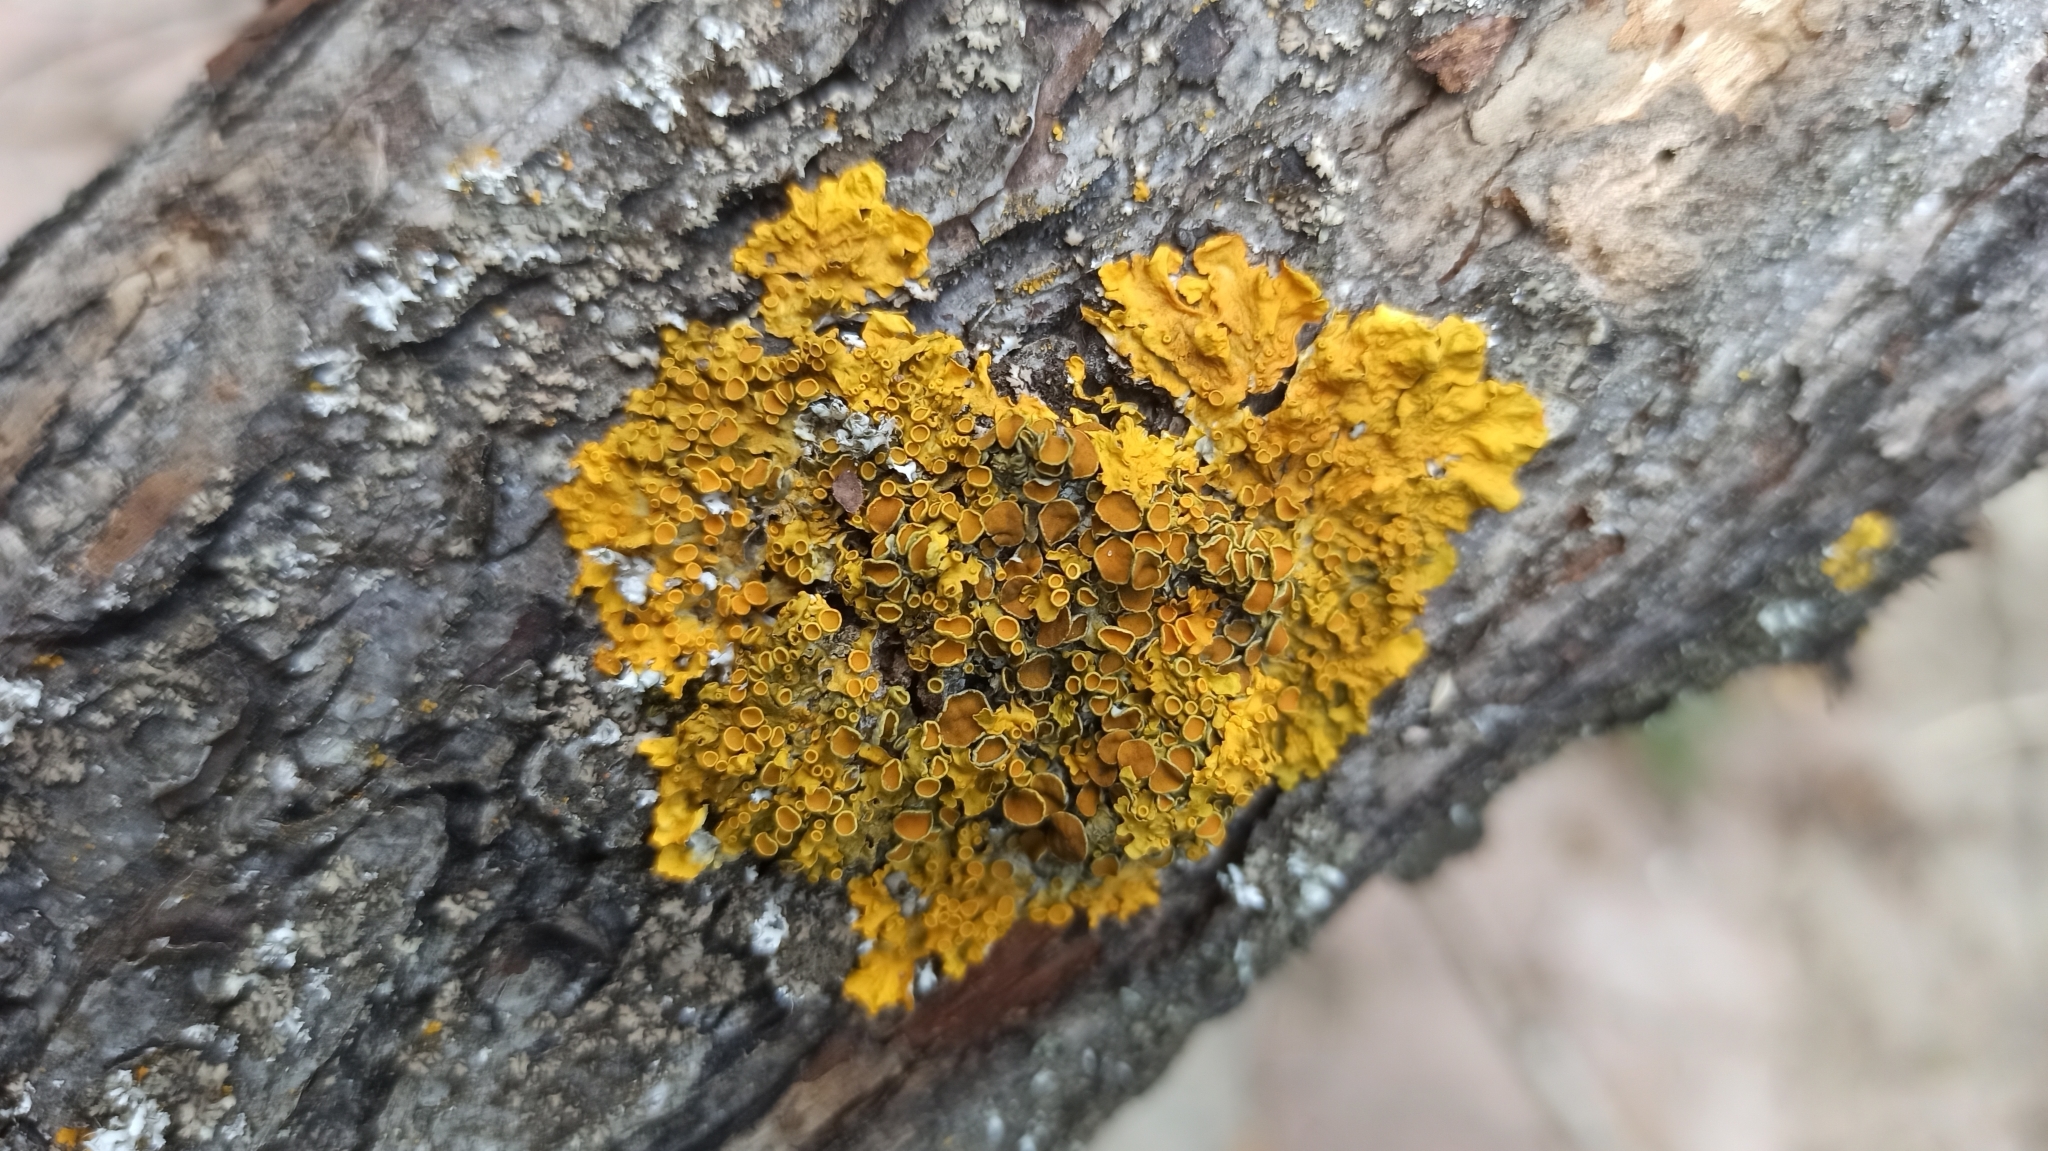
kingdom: Fungi
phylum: Ascomycota
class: Lecanoromycetes
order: Teloschistales
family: Teloschistaceae
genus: Xanthoria
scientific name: Xanthoria parietina
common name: Common orange lichen
